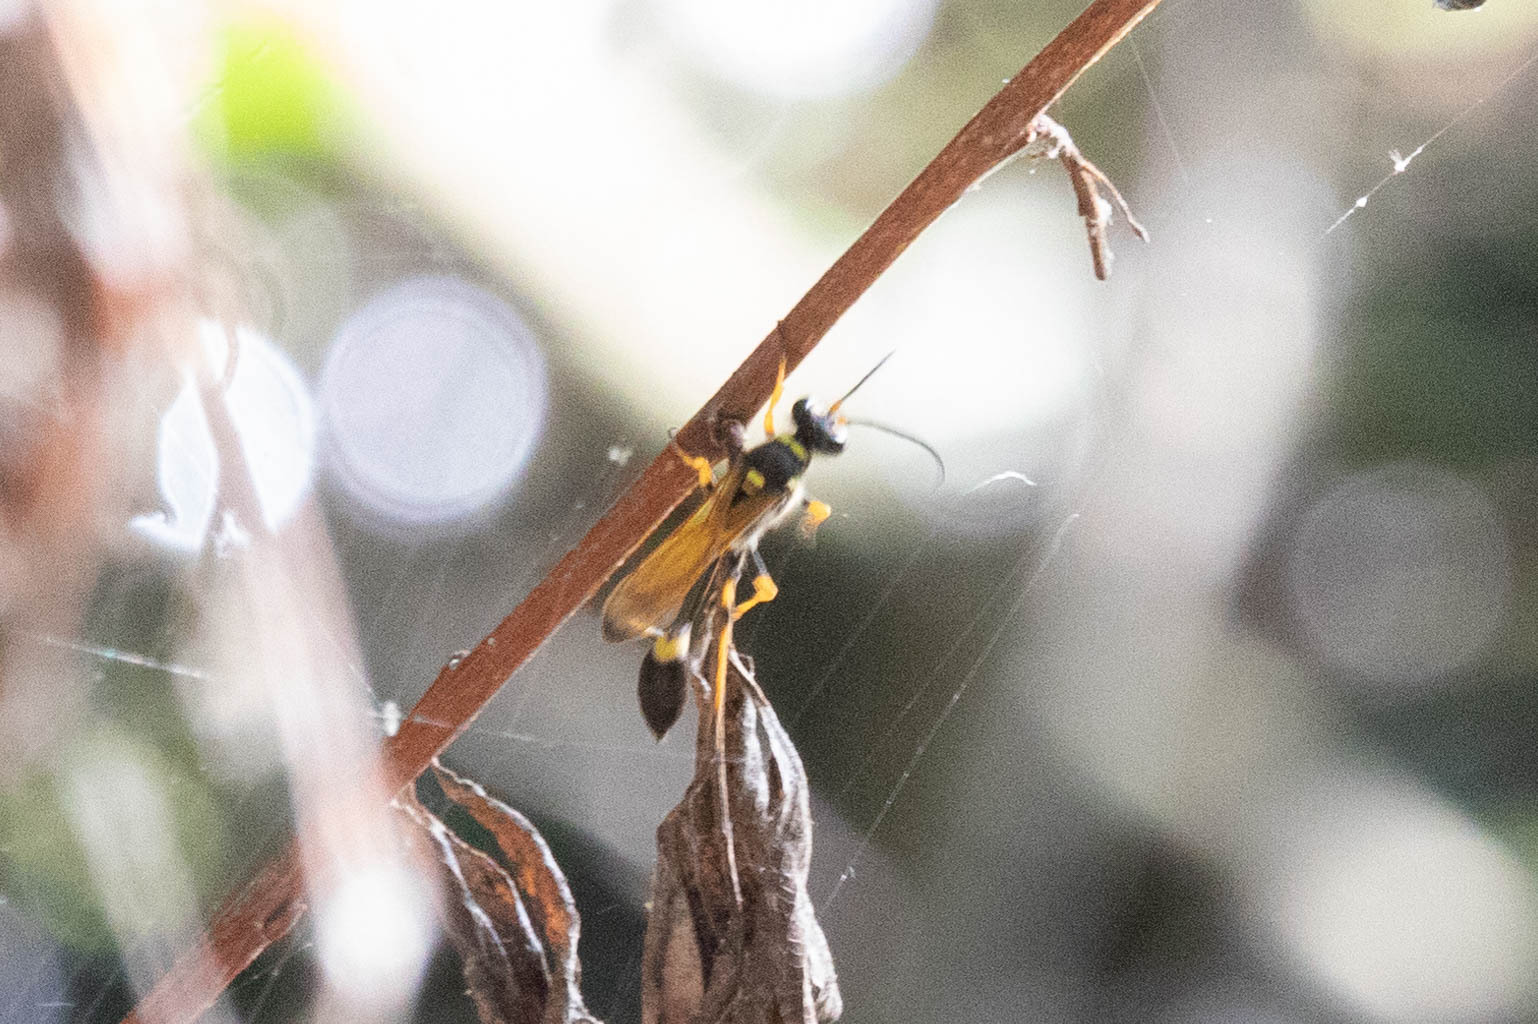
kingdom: Animalia
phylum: Arthropoda
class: Insecta
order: Hymenoptera
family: Sphecidae
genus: Sceliphron
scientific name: Sceliphron caementarium
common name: Mud dauber
